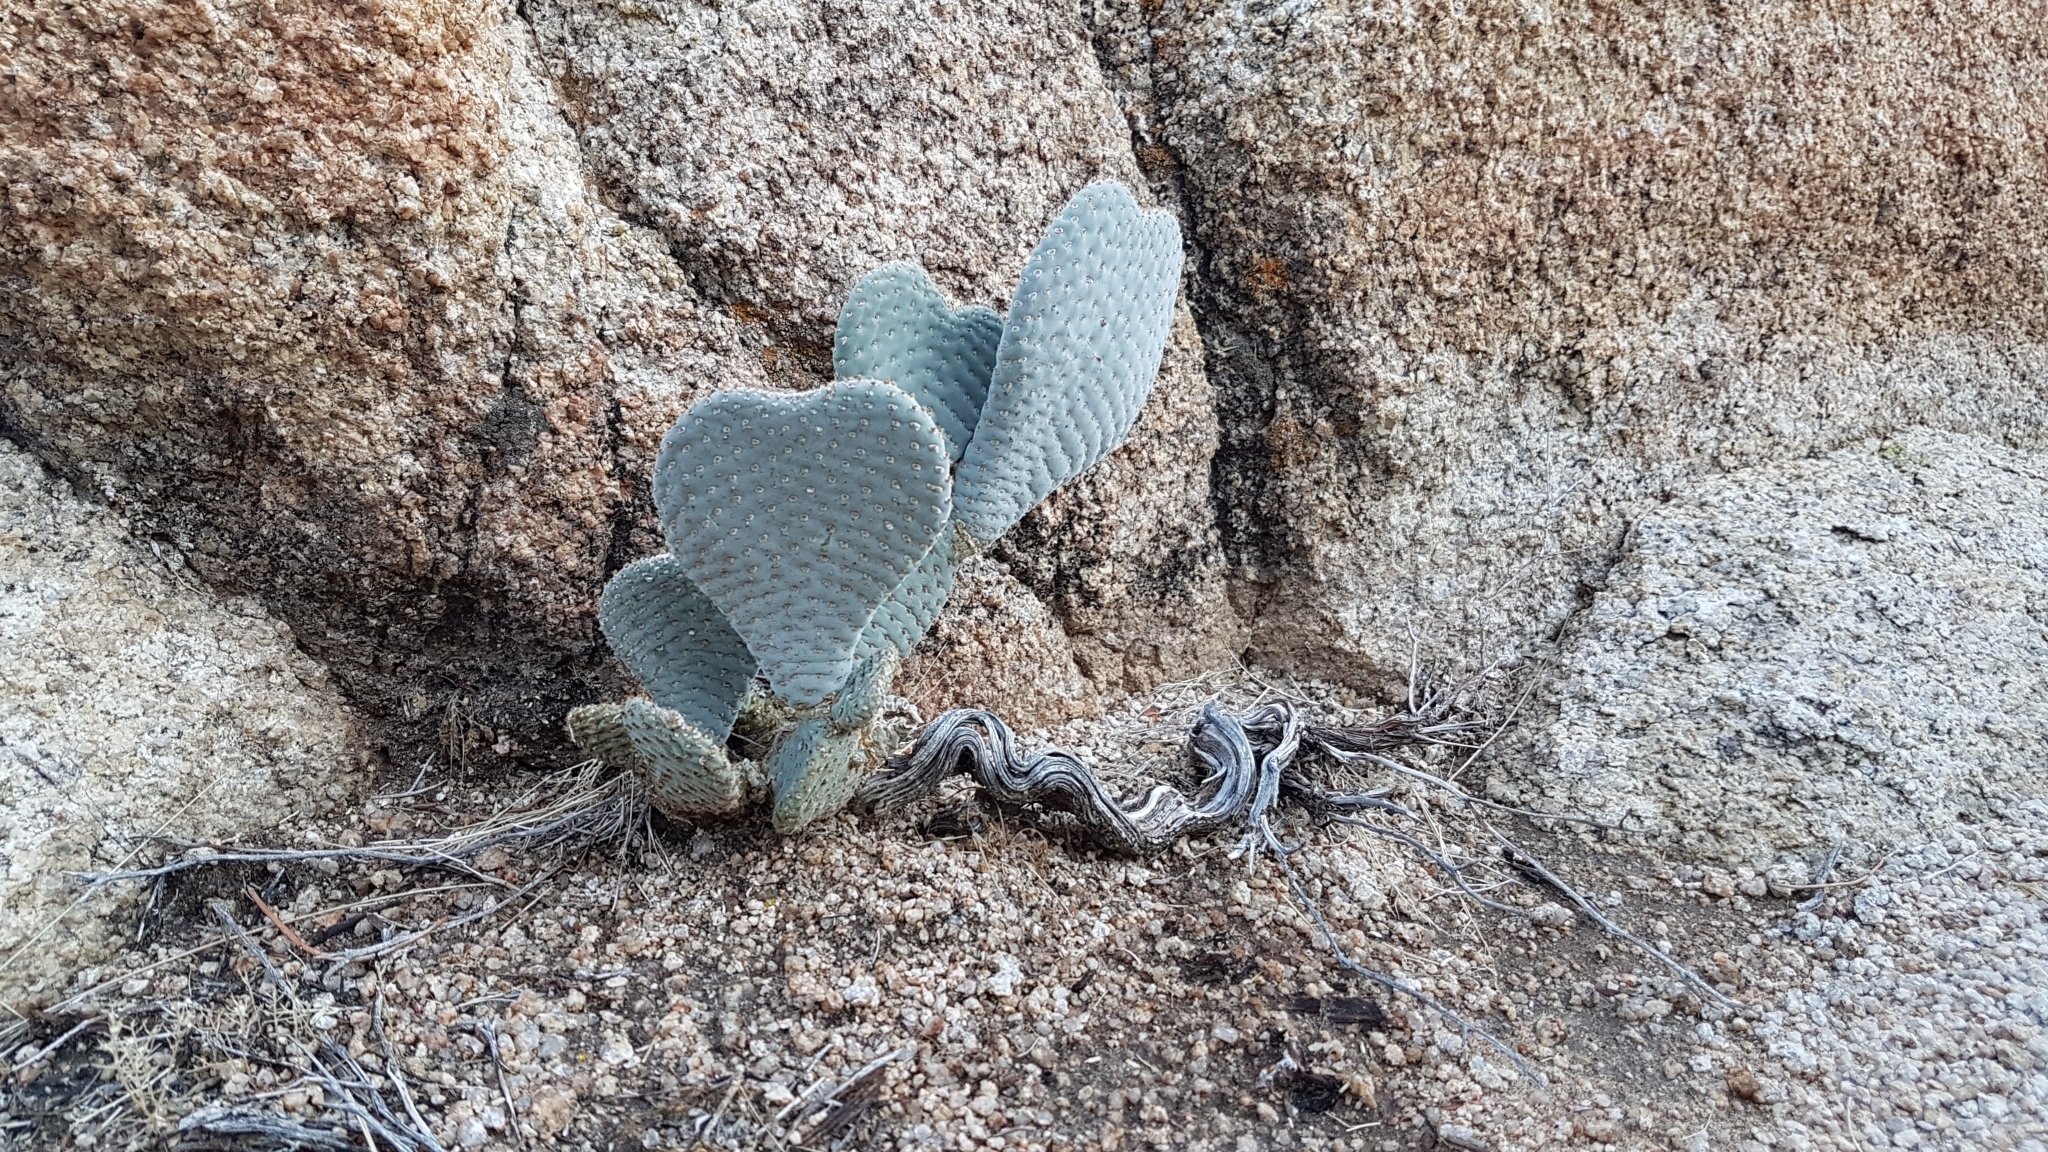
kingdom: Plantae
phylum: Tracheophyta
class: Magnoliopsida
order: Caryophyllales
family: Cactaceae
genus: Opuntia
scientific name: Opuntia basilaris
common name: Beavertail prickly-pear
